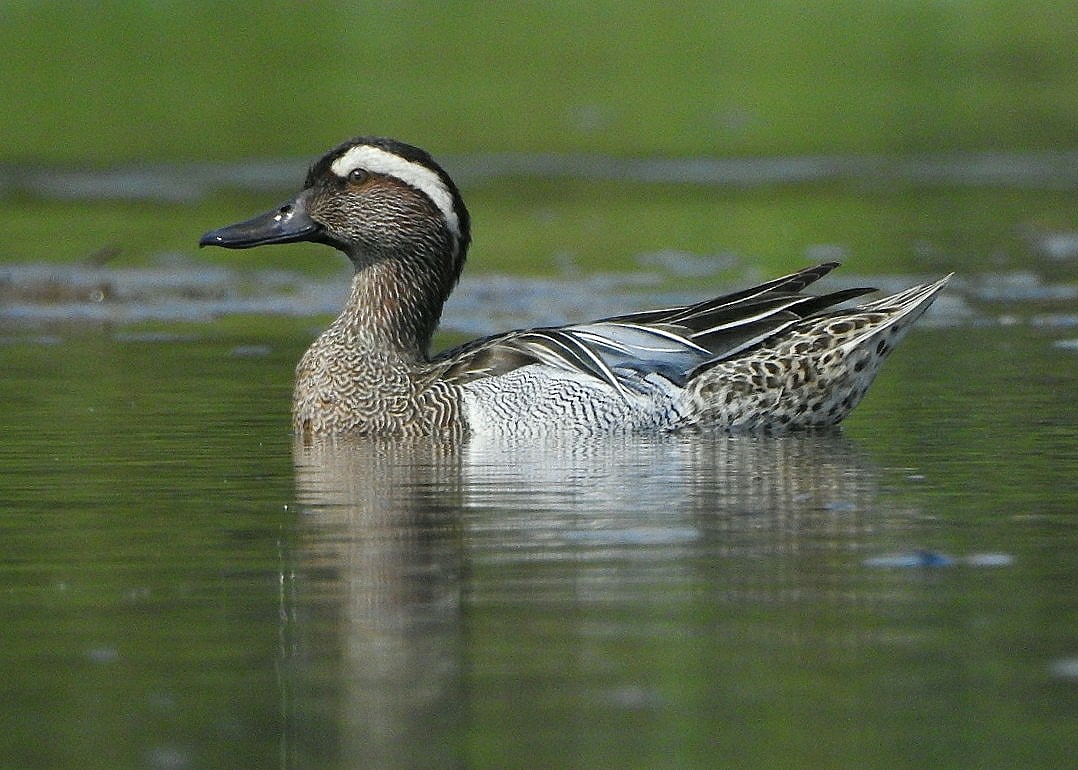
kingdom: Animalia
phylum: Chordata
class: Aves
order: Anseriformes
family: Anatidae
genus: Spatula
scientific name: Spatula querquedula
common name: Garganey
